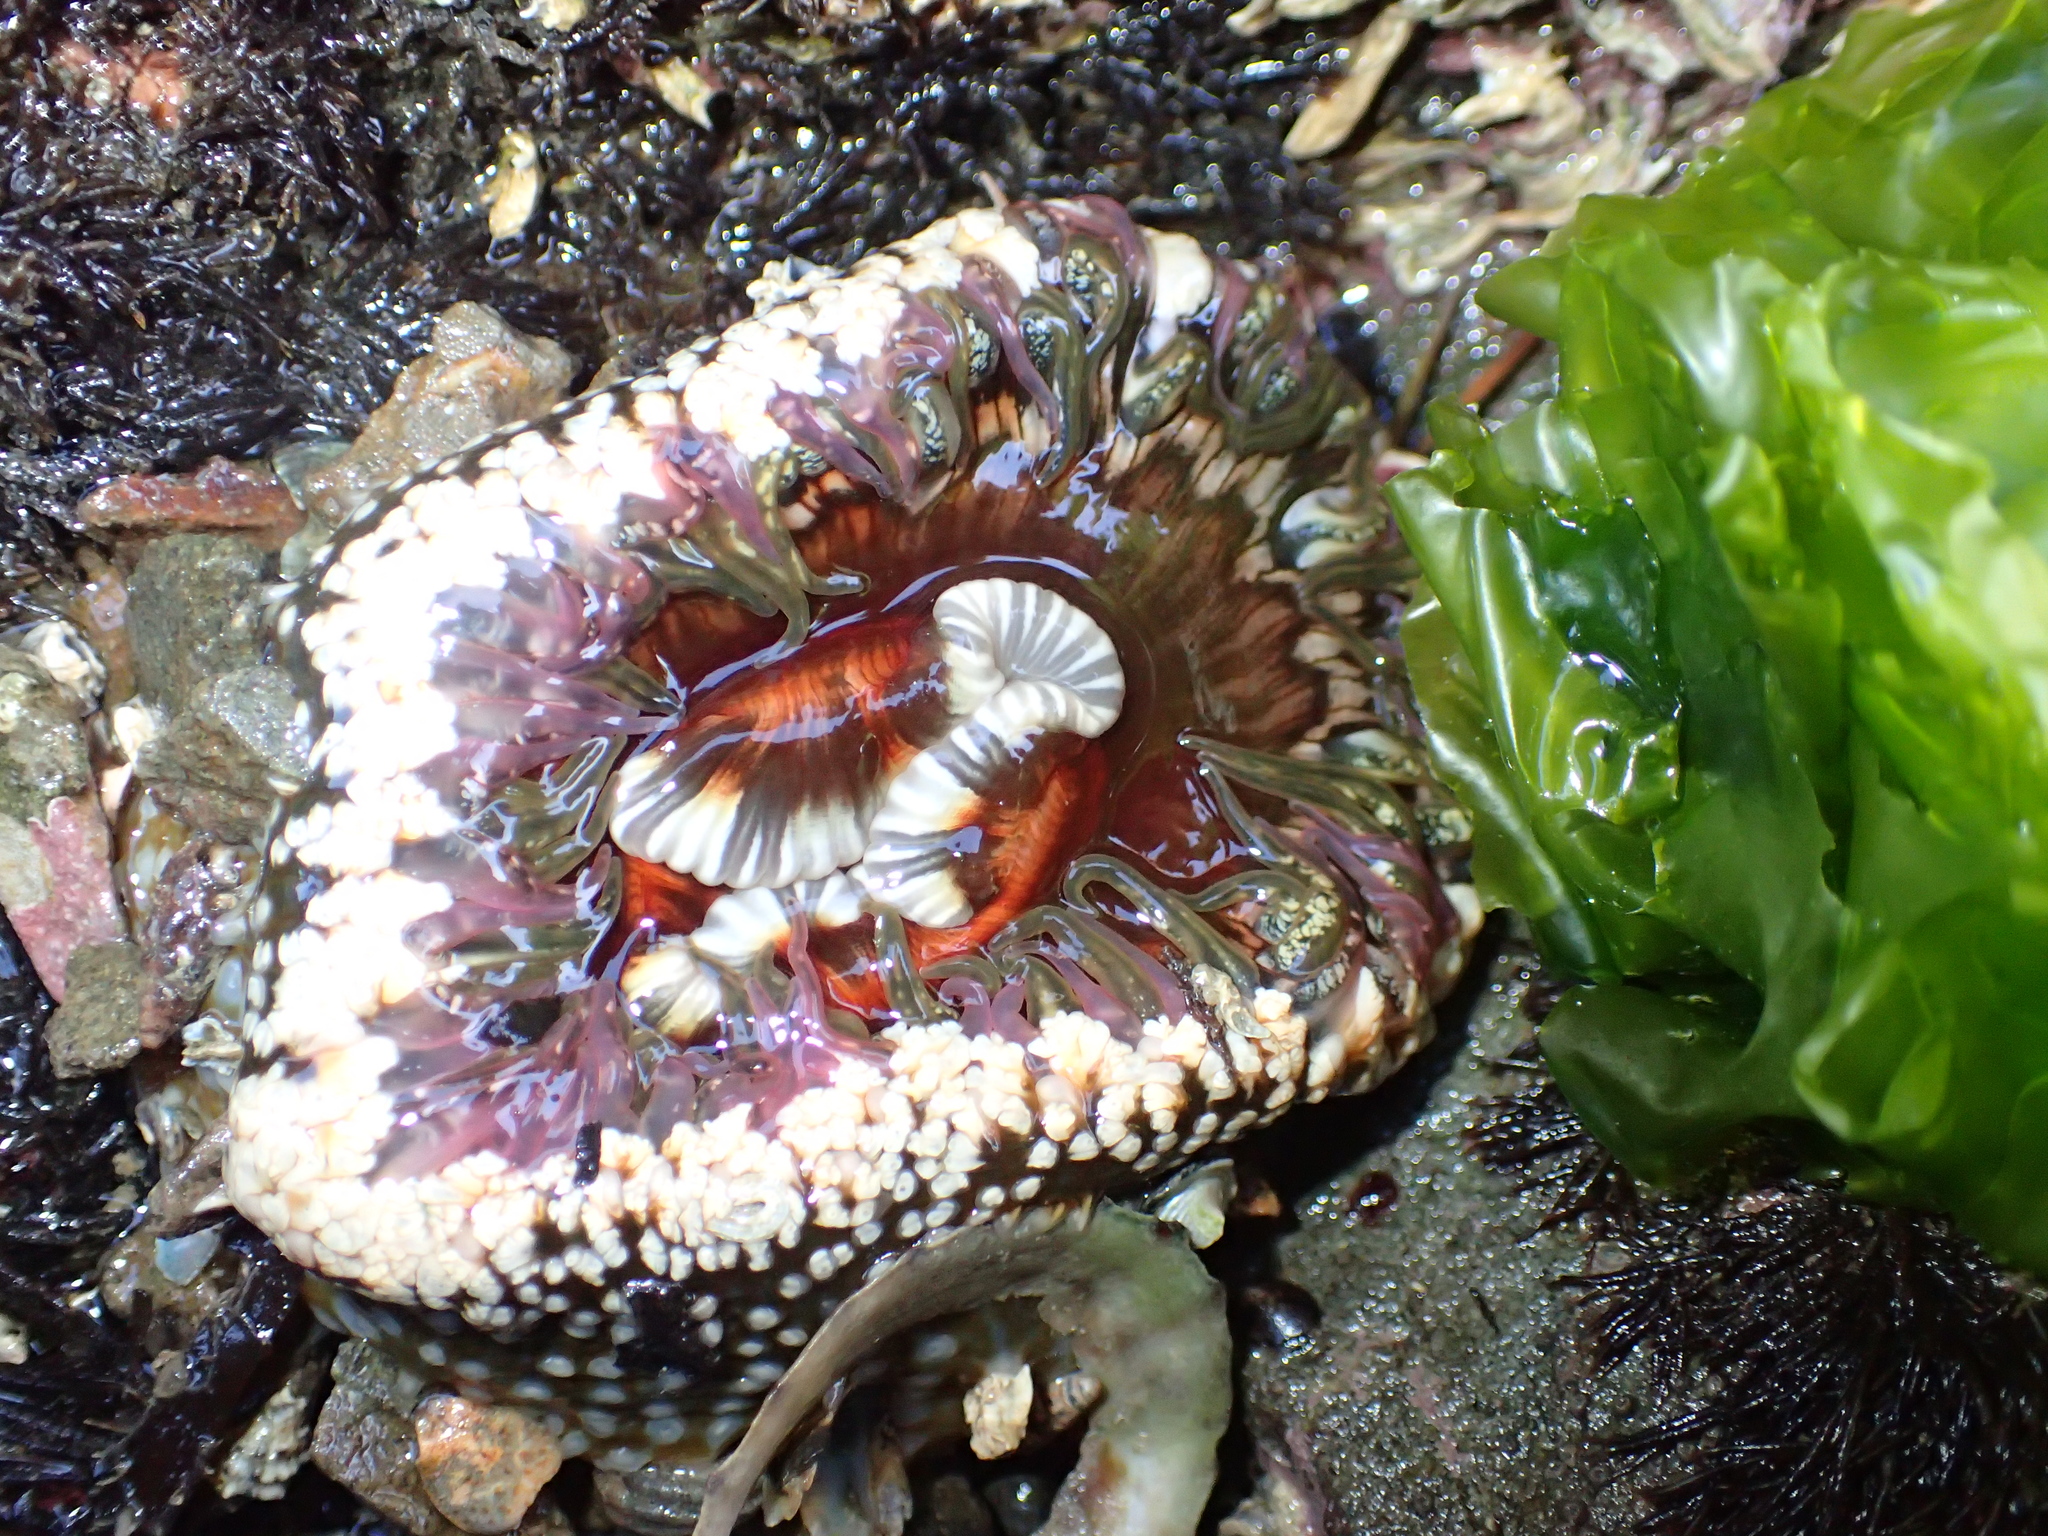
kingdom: Animalia
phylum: Cnidaria
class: Anthozoa
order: Actiniaria
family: Actiniidae
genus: Oulactis
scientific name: Oulactis muscosa
